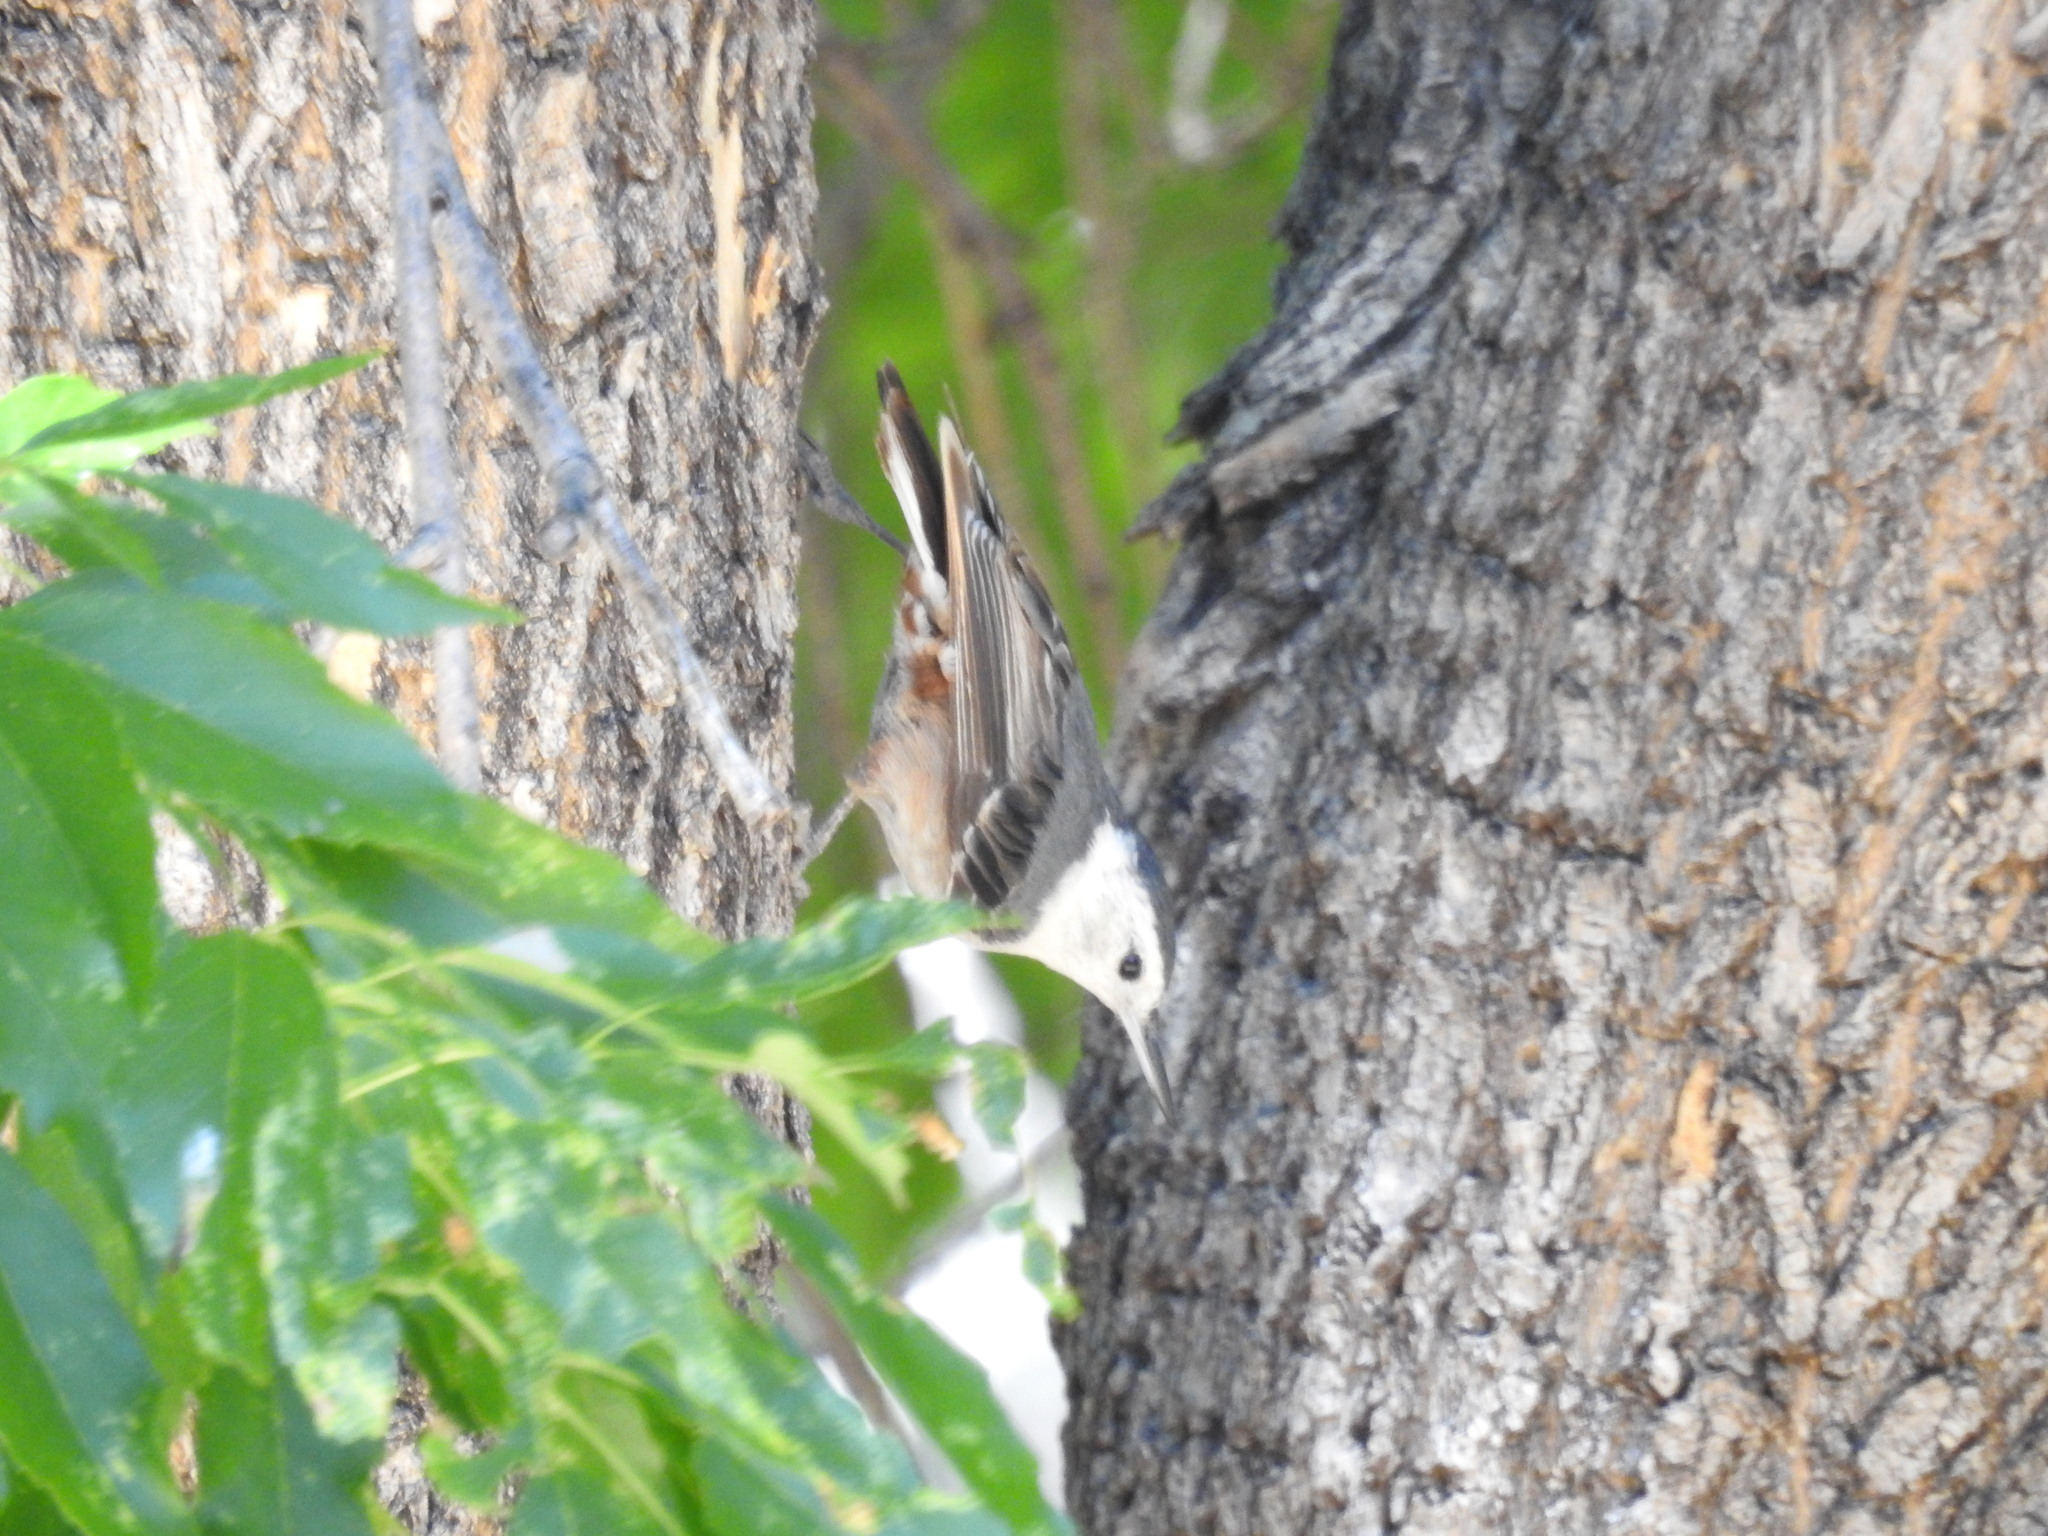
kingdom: Animalia
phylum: Chordata
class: Aves
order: Passeriformes
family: Sittidae
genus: Sitta
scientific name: Sitta carolinensis
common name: White-breasted nuthatch
